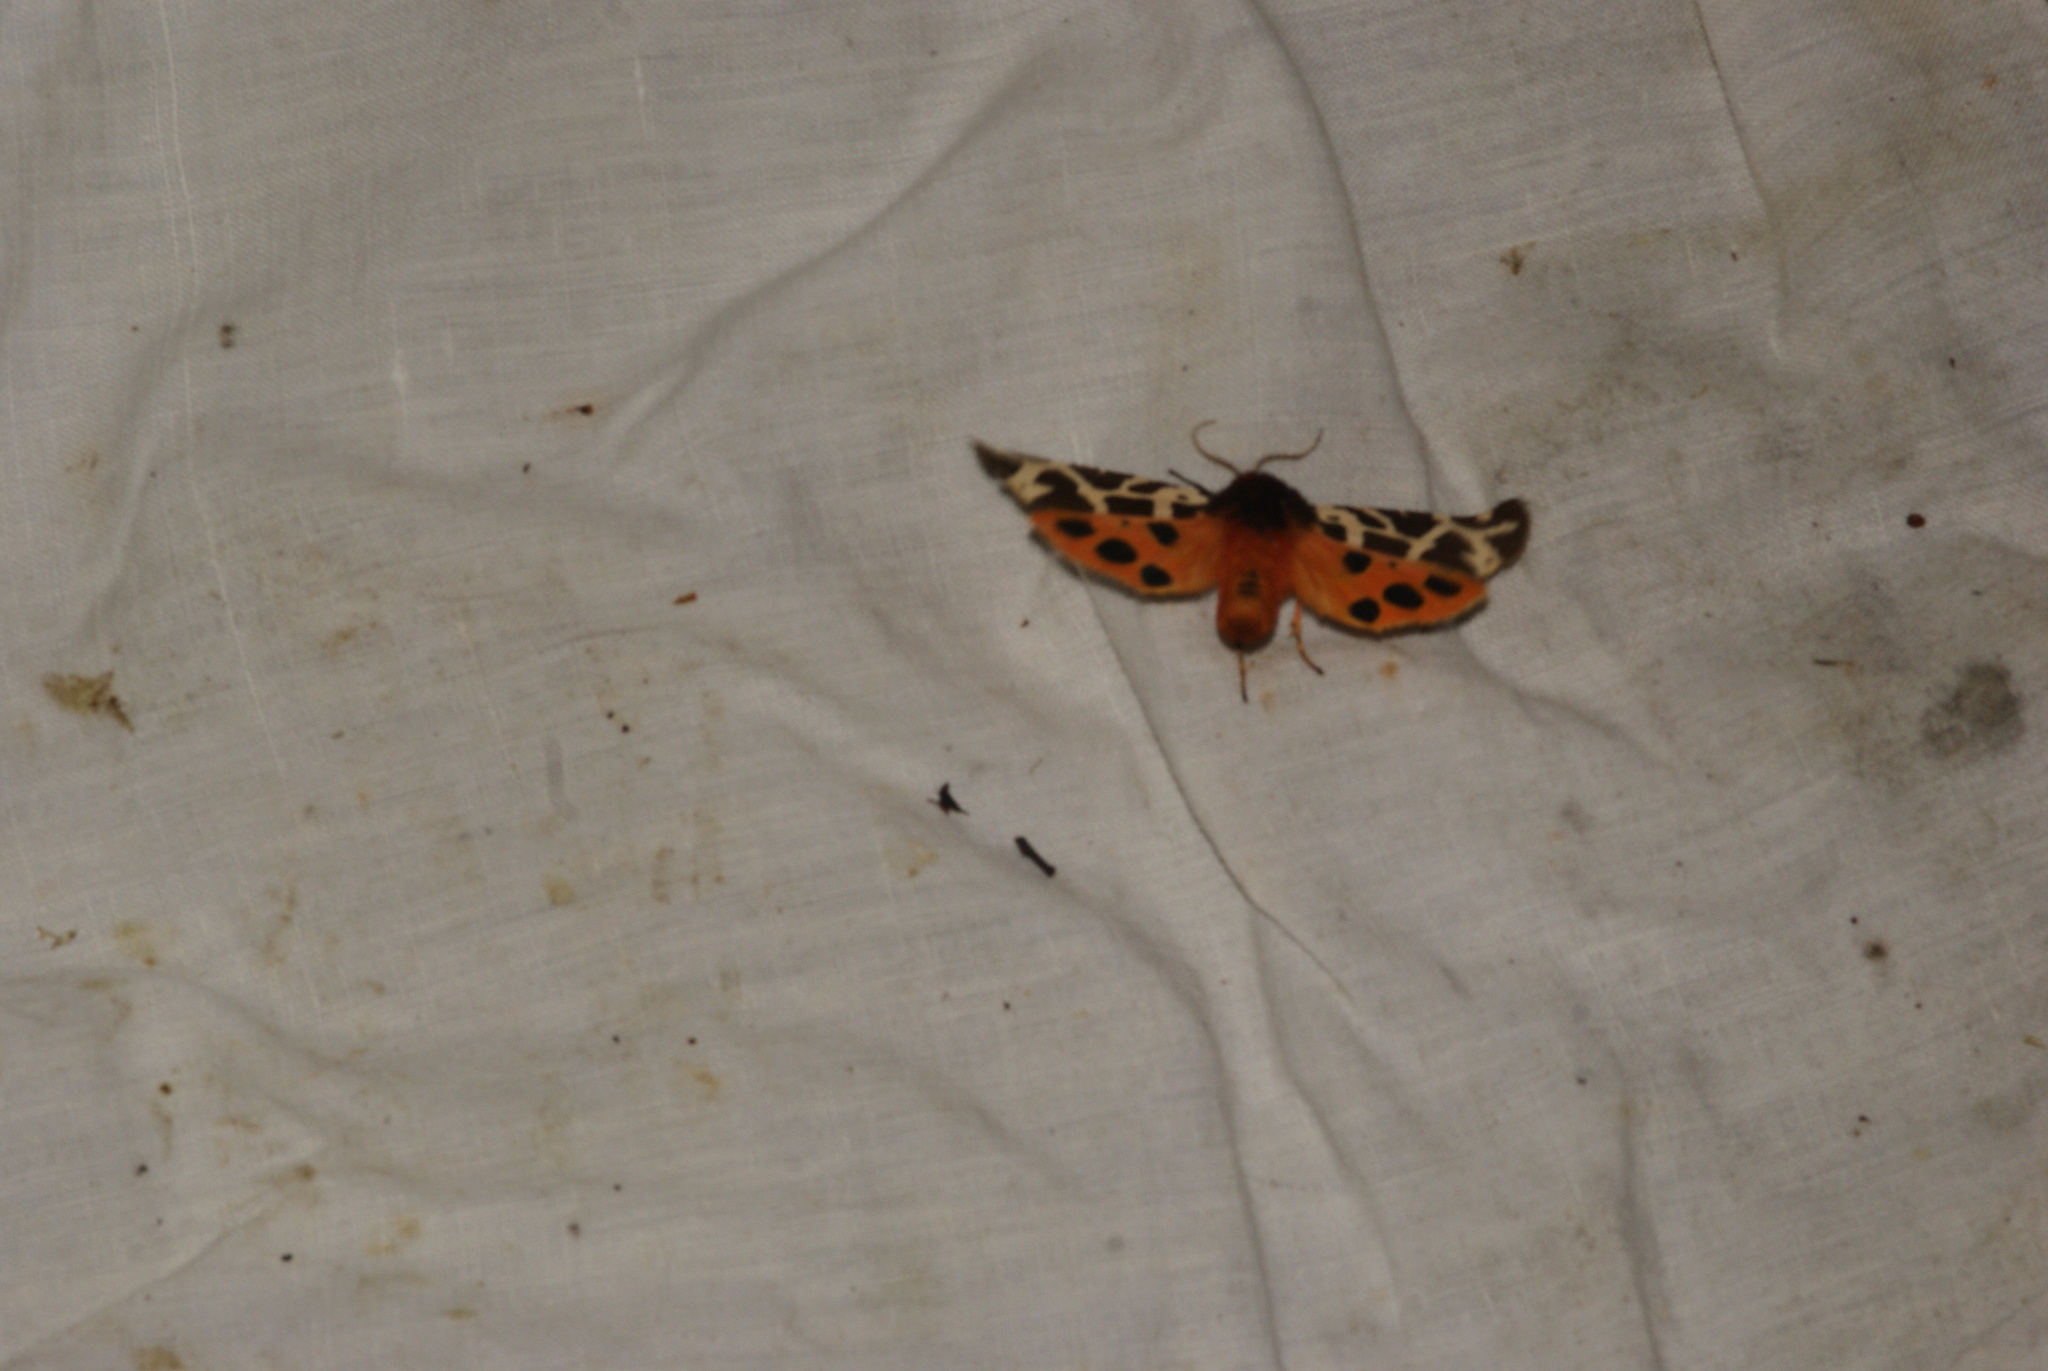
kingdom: Animalia
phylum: Arthropoda
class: Insecta
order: Lepidoptera
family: Erebidae
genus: Arctia
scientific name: Arctia caja
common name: Garden tiger
